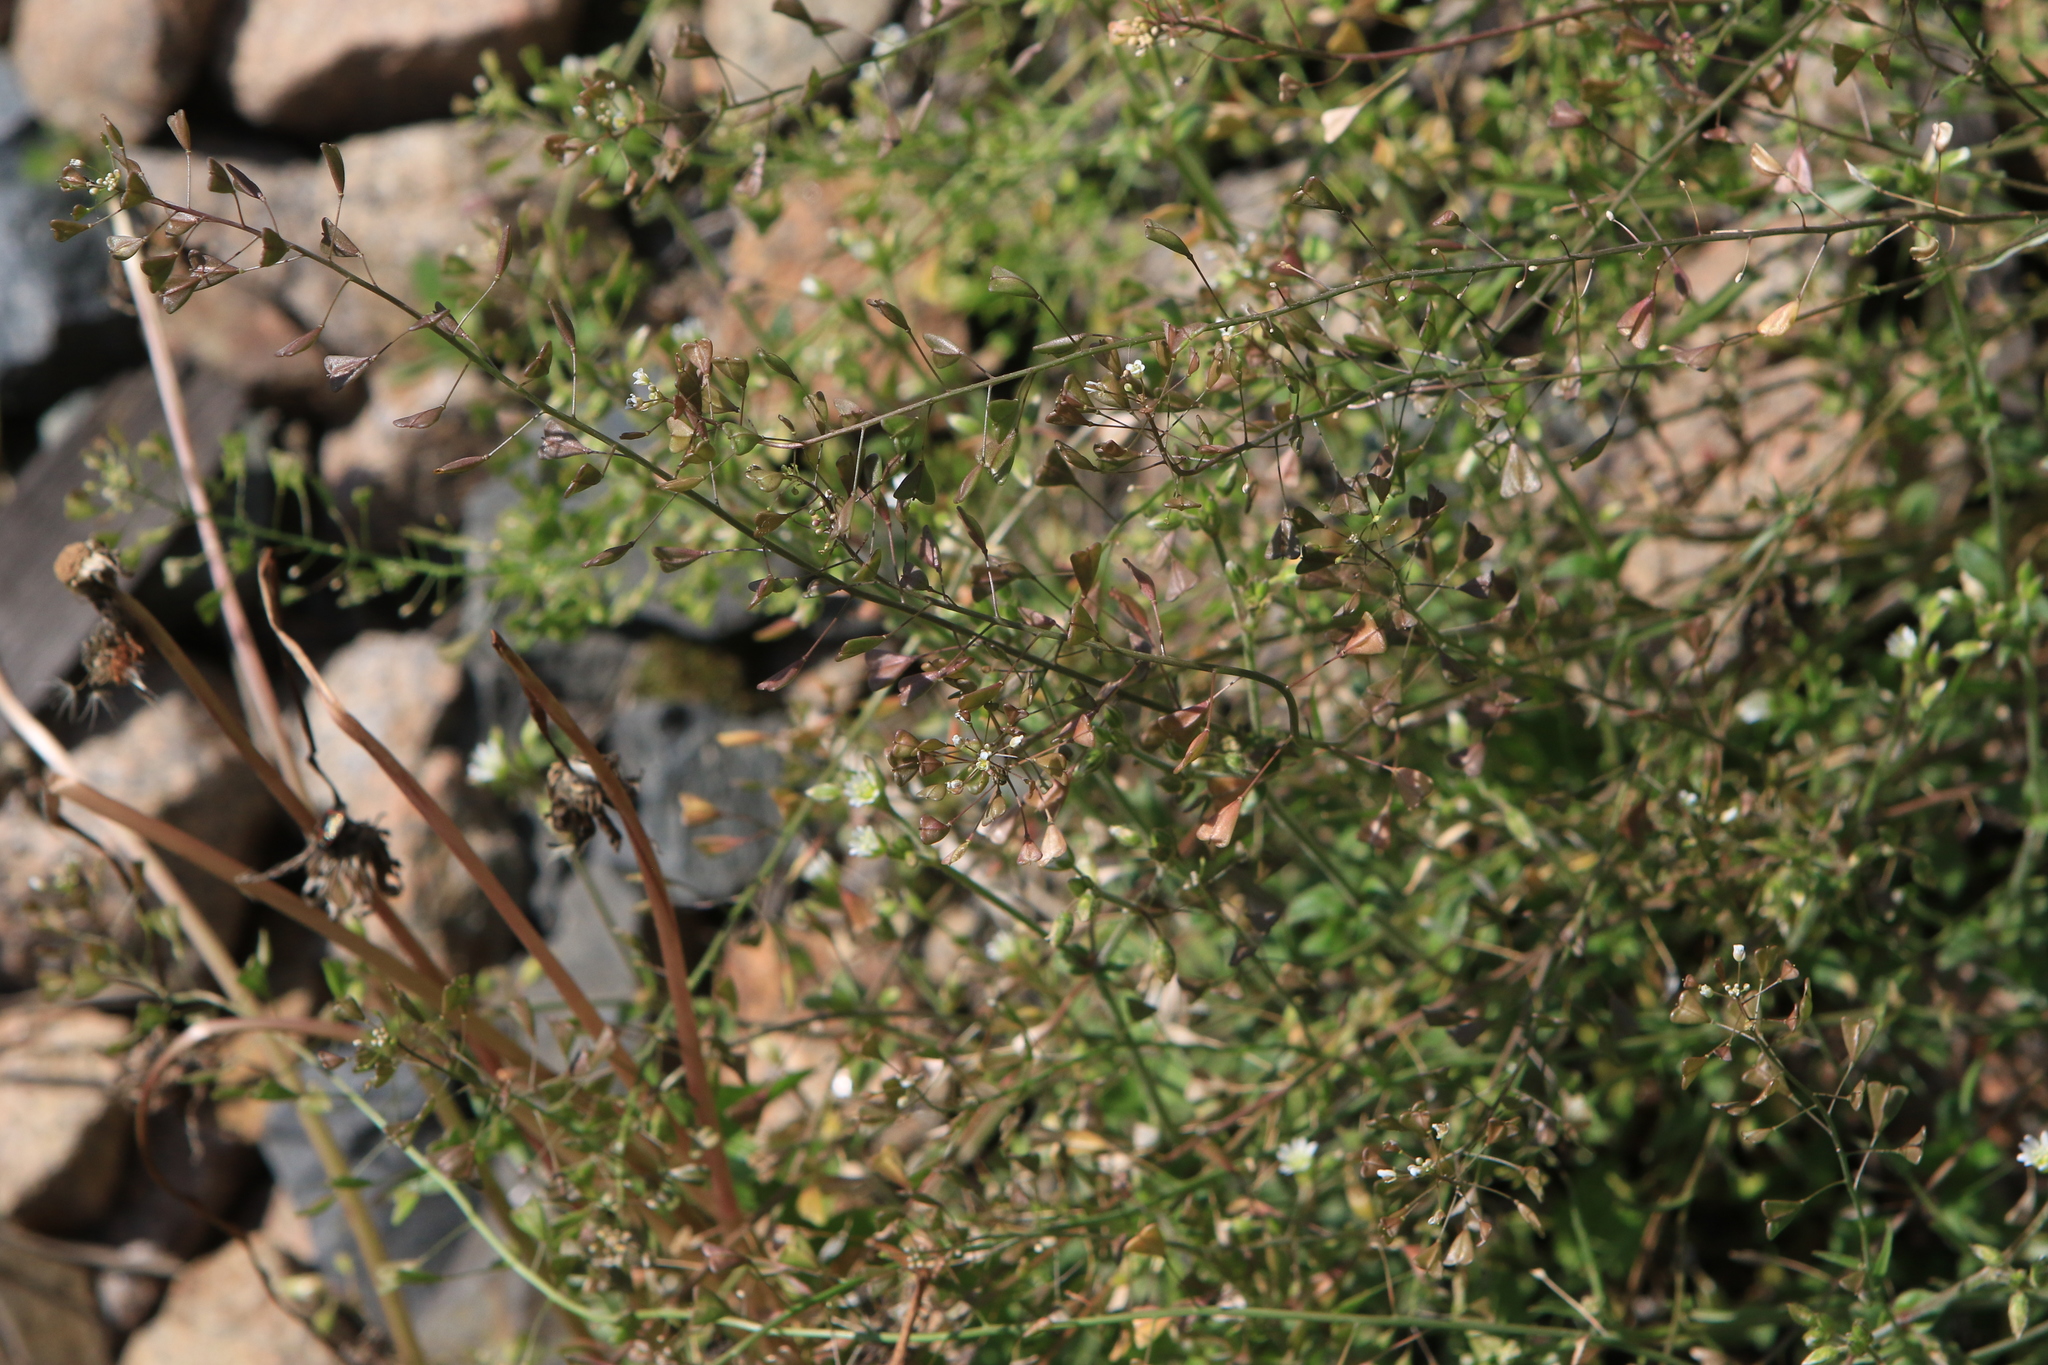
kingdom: Plantae
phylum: Tracheophyta
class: Magnoliopsida
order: Brassicales
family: Brassicaceae
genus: Capsella
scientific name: Capsella bursa-pastoris
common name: Shepherd's purse
